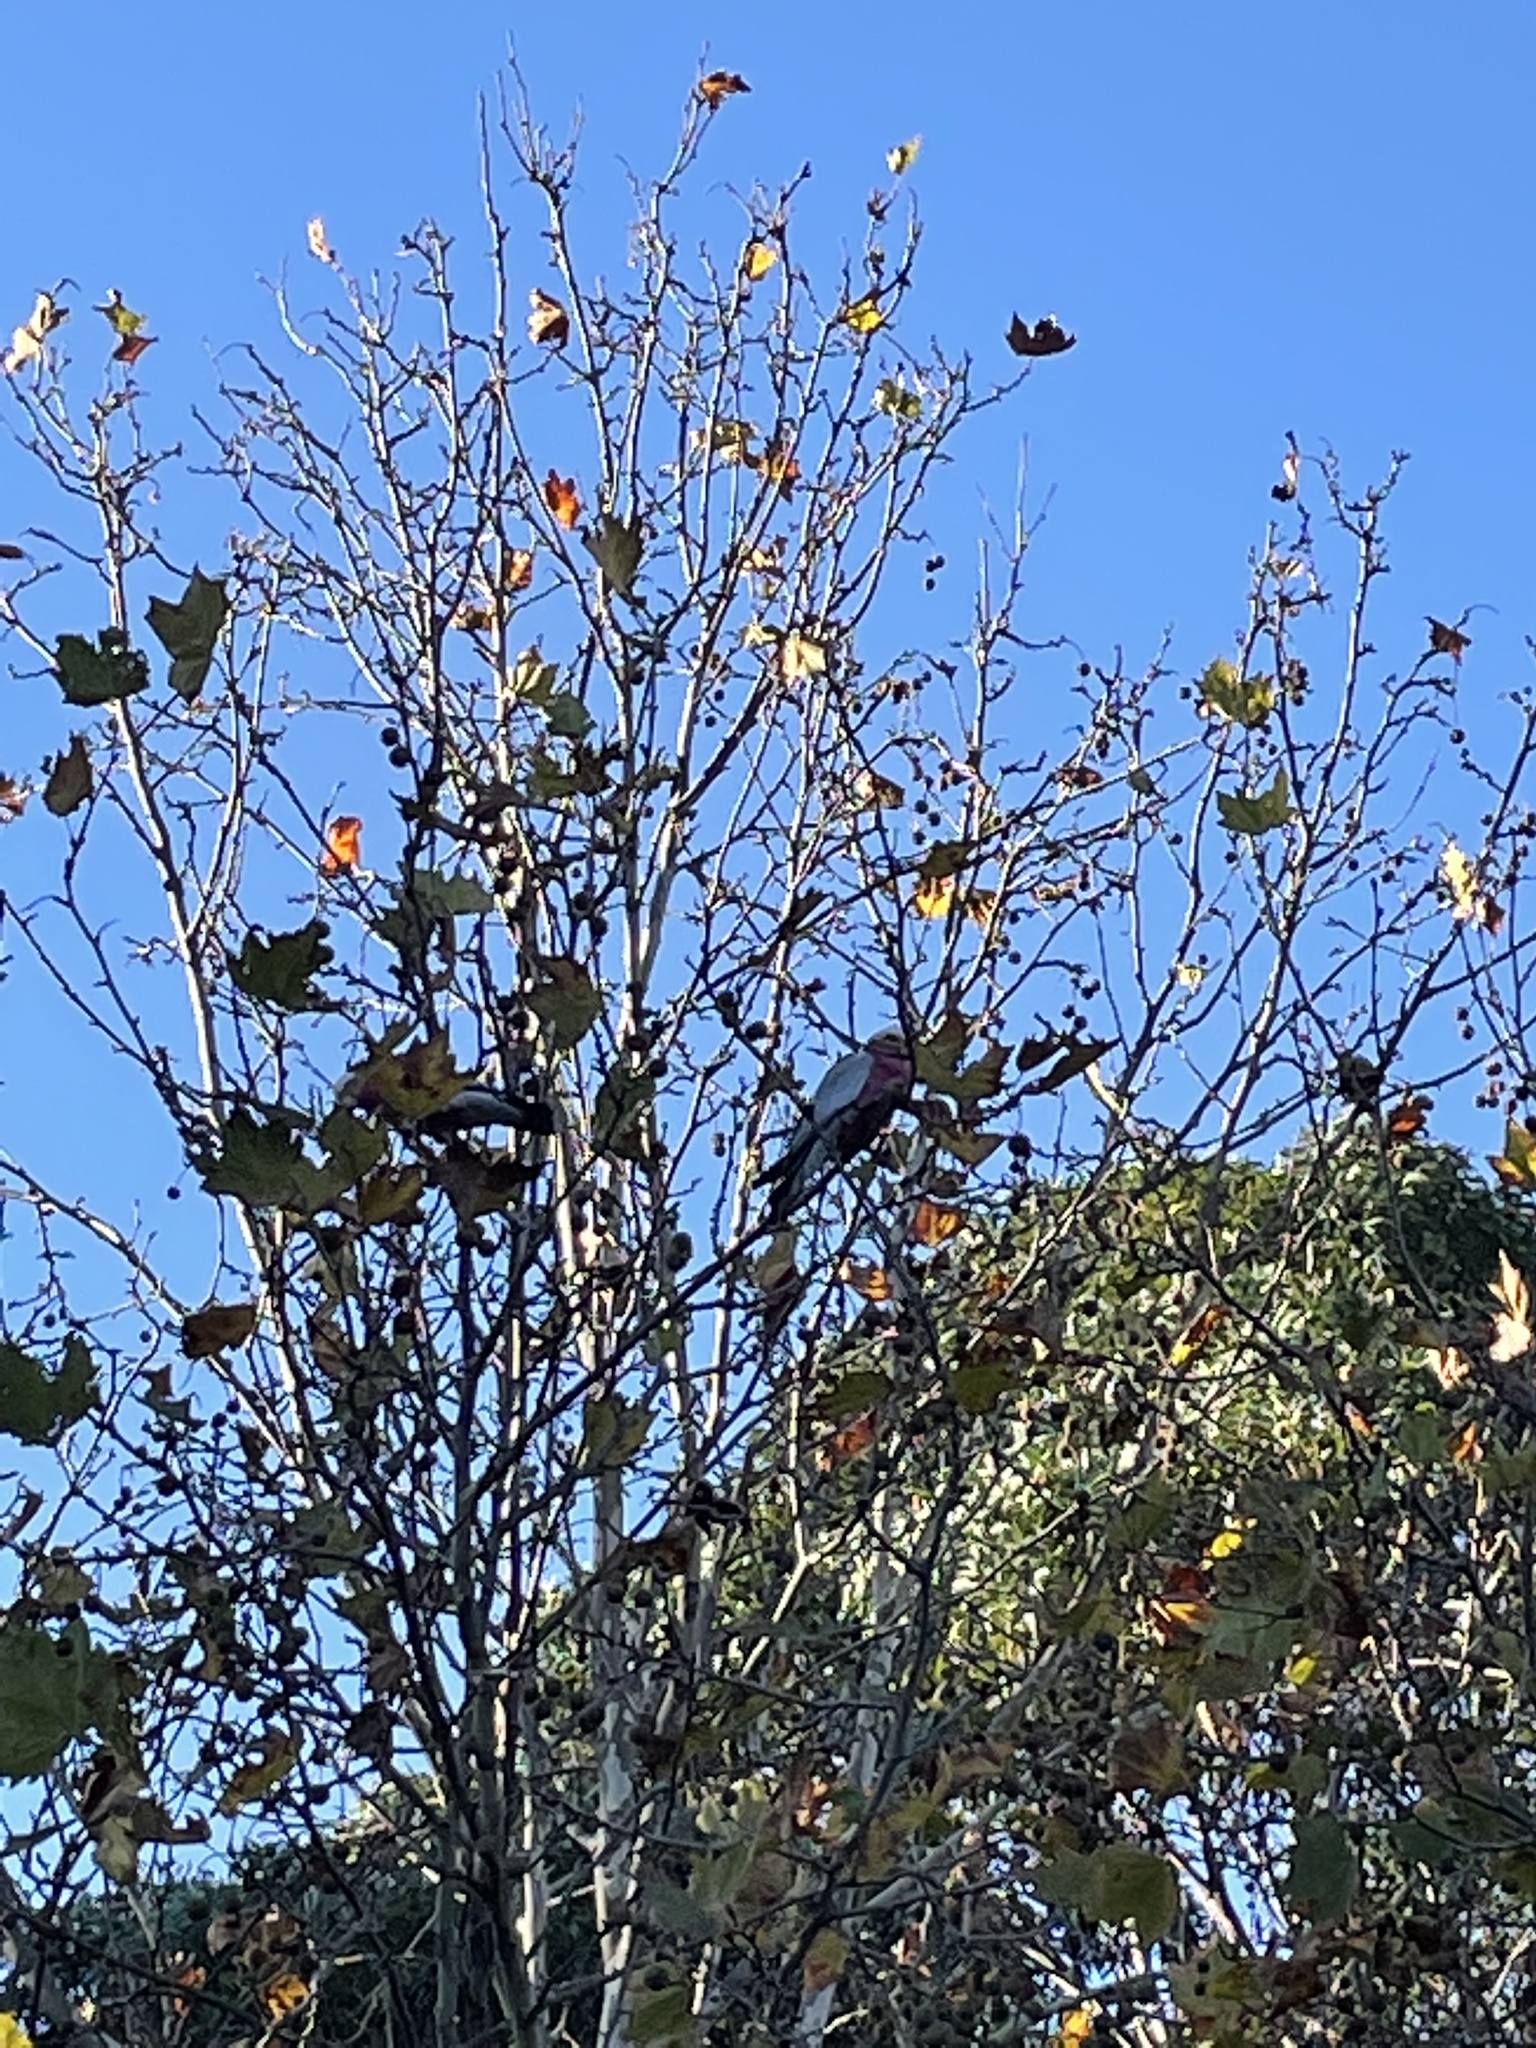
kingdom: Animalia
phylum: Chordata
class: Aves
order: Psittaciformes
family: Psittacidae
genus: Eolophus
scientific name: Eolophus roseicapilla
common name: Galah
